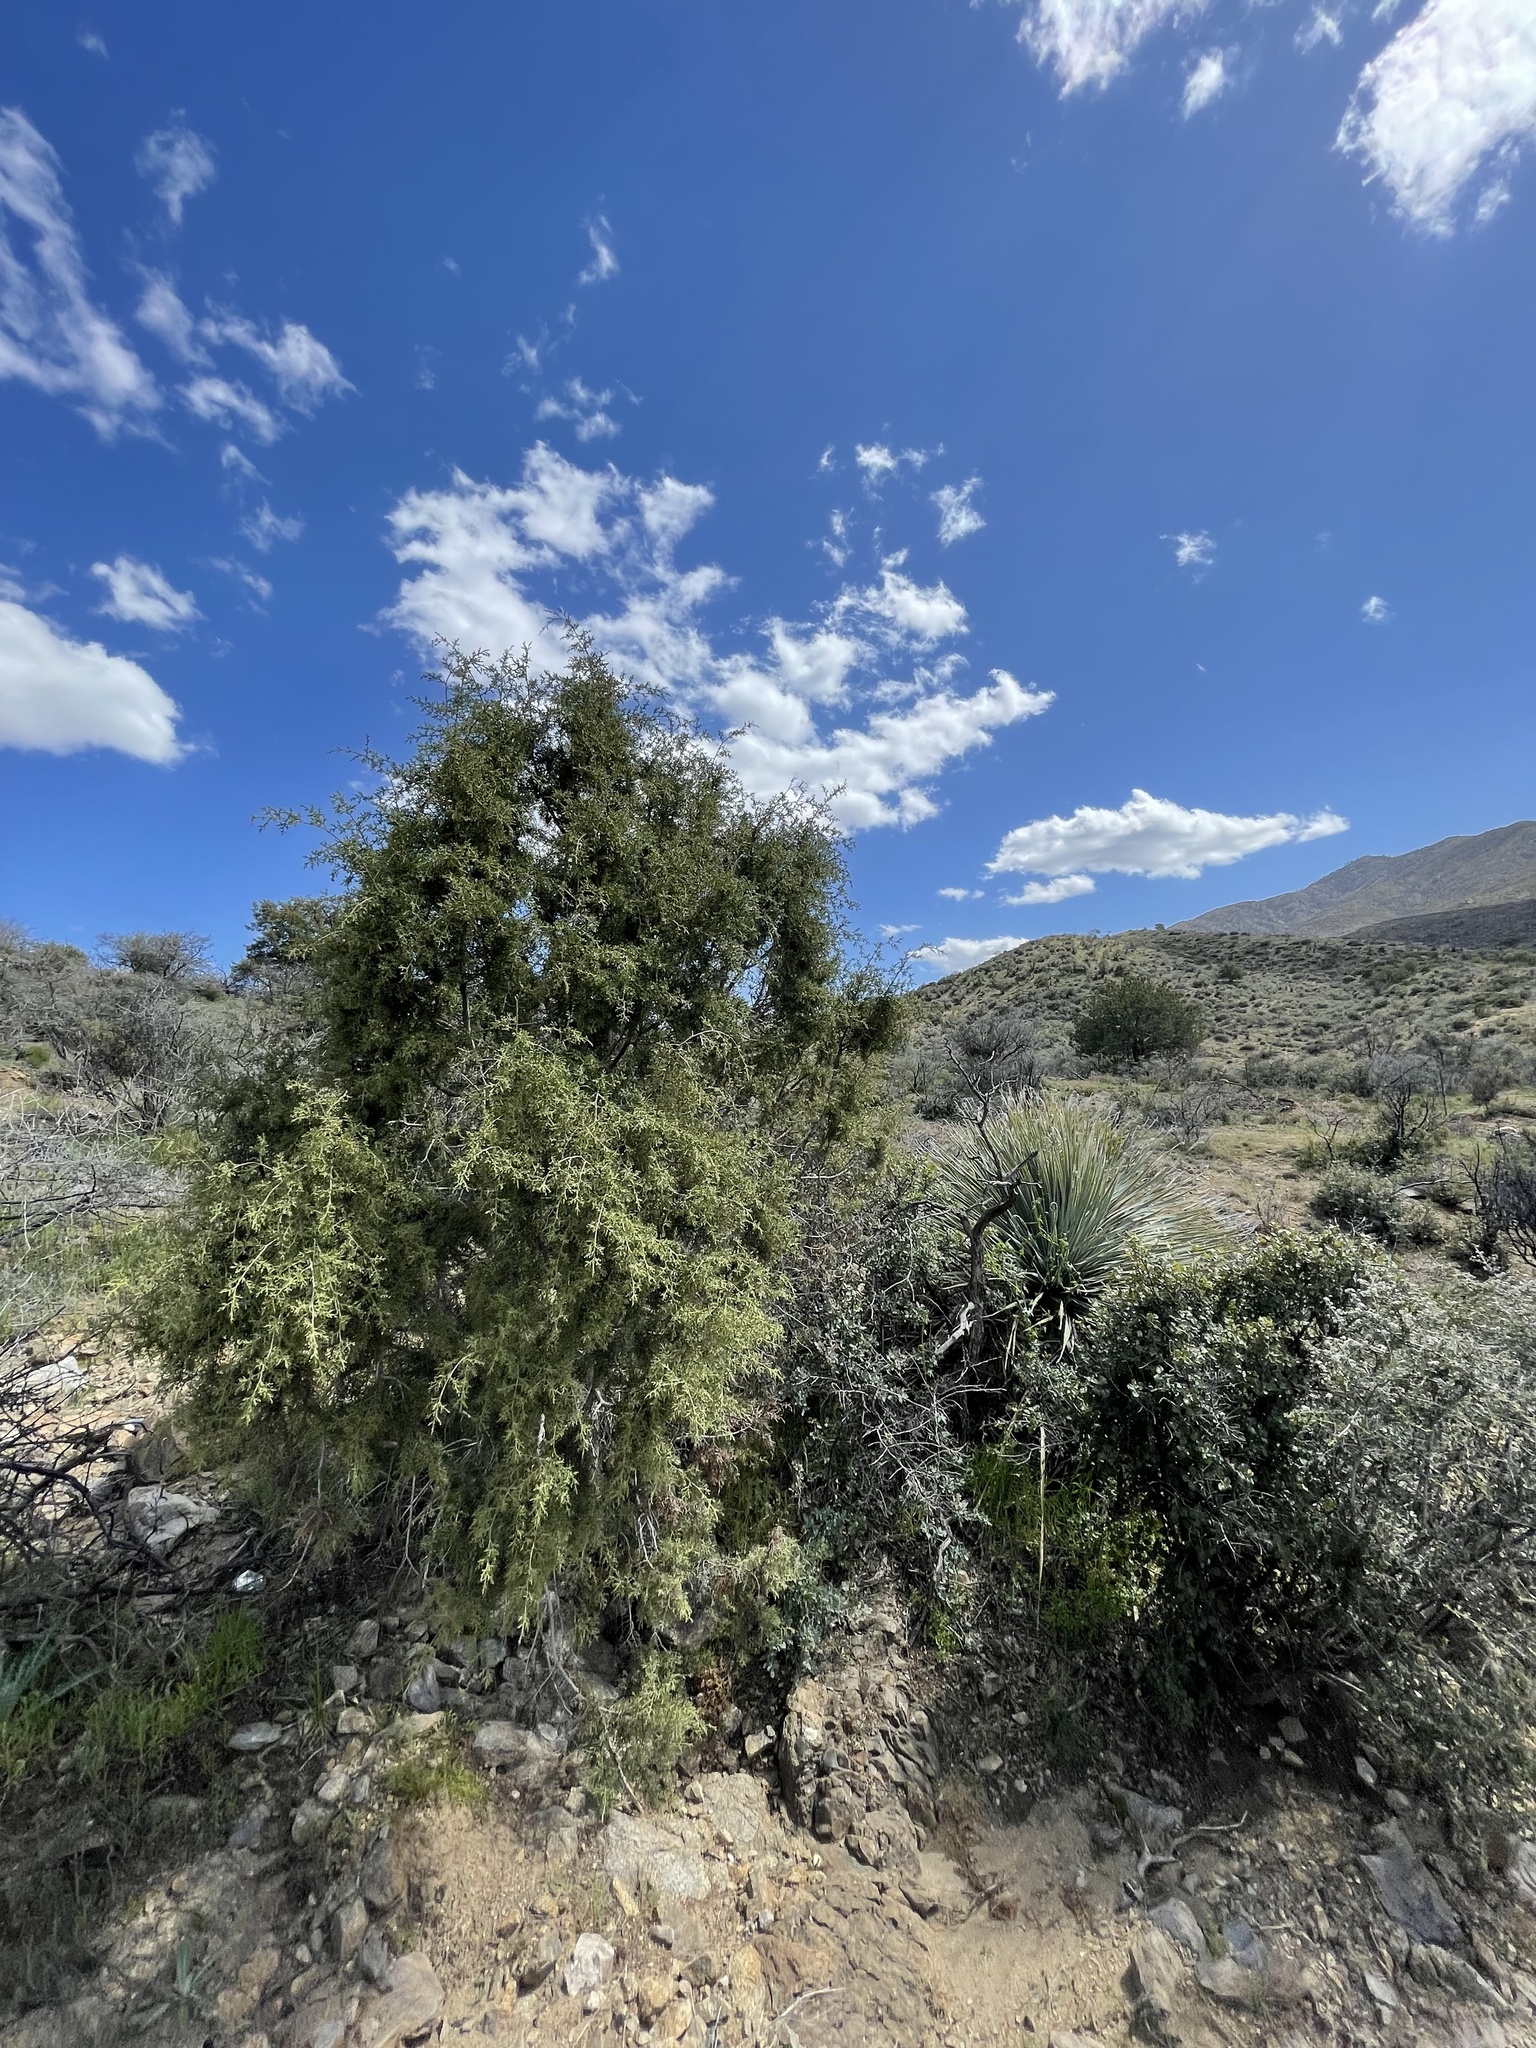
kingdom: Plantae
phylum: Tracheophyta
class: Pinopsida
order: Pinales
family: Cupressaceae
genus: Juniperus
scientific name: Juniperus arizonica
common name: Arizona juniper
